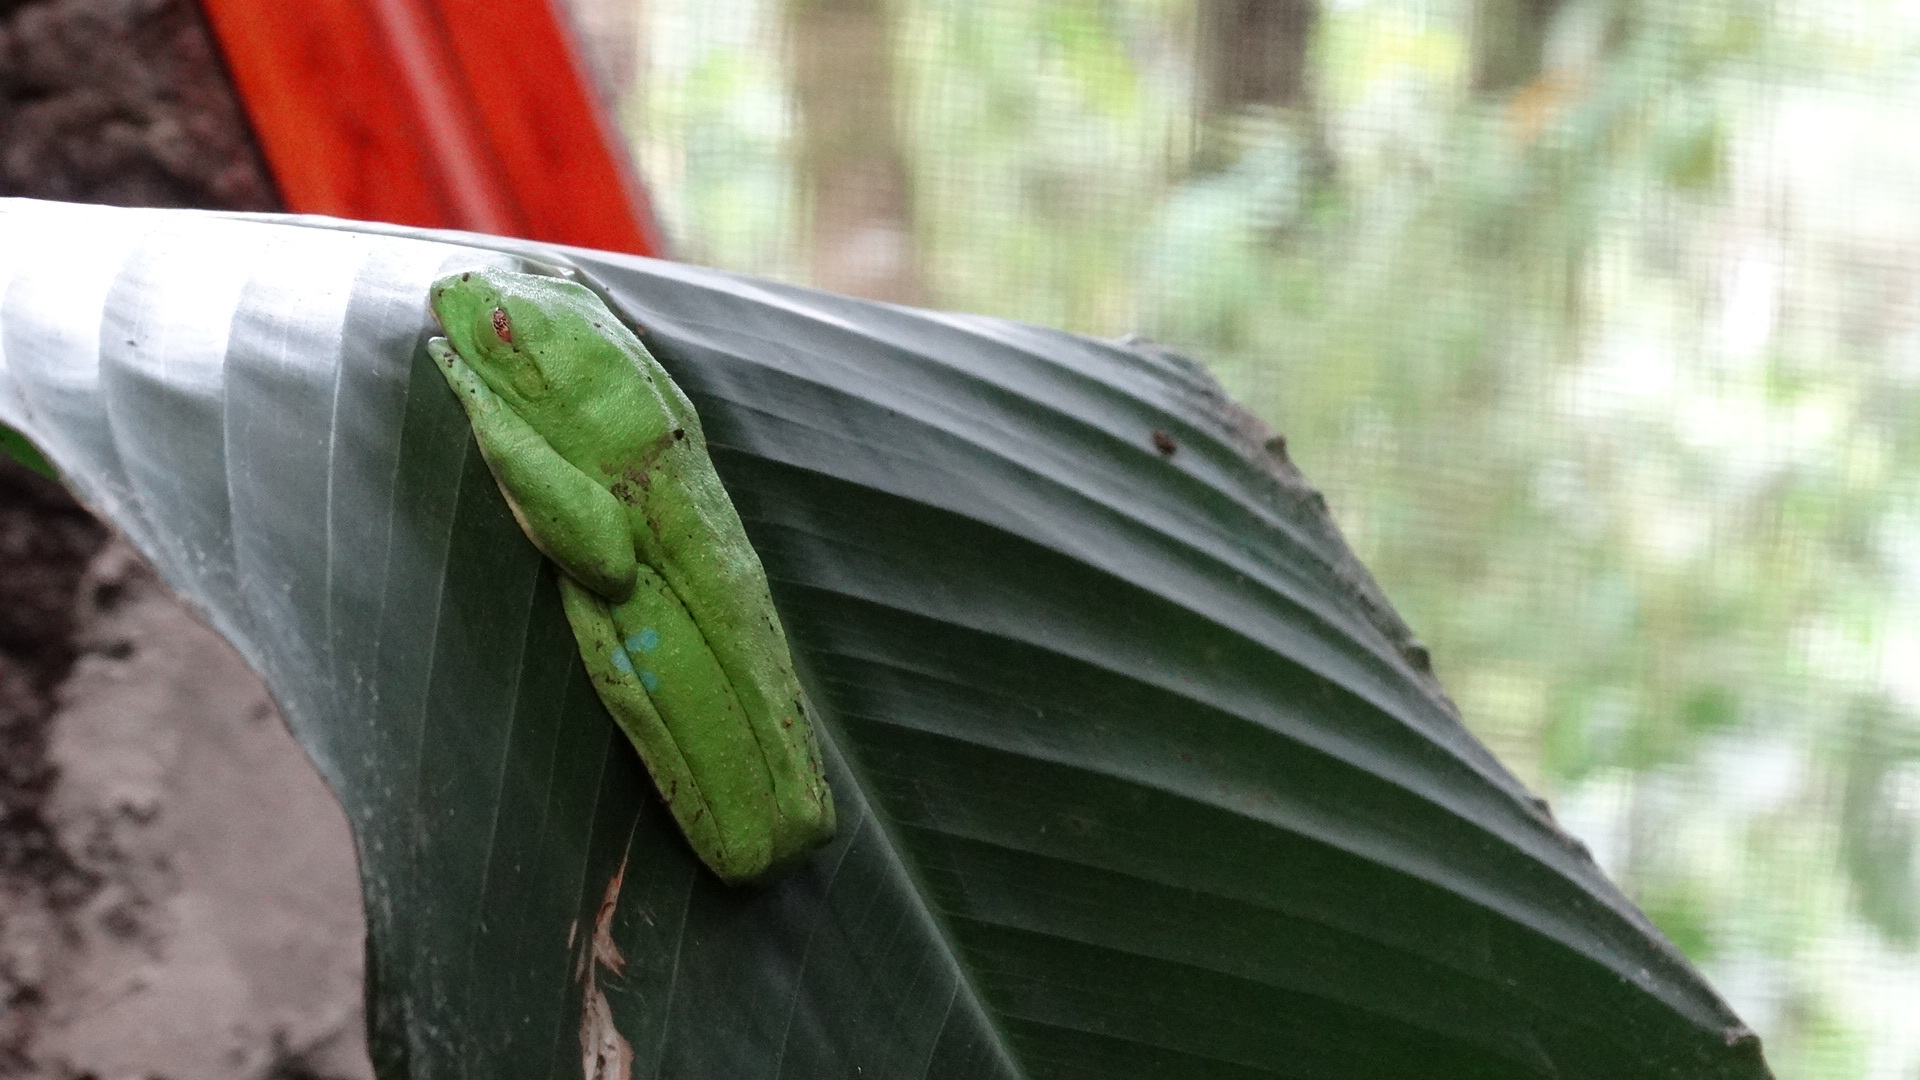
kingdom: Animalia
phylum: Chordata
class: Amphibia
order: Anura
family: Phyllomedusidae
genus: Agalychnis
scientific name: Agalychnis callidryas
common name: Red-eyed treefrog
